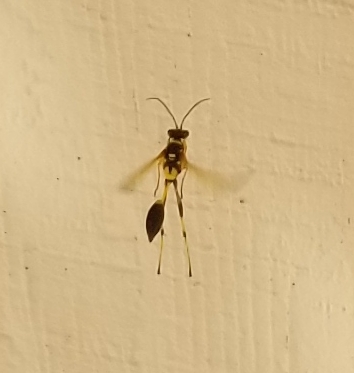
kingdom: Animalia
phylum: Arthropoda
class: Insecta
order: Hymenoptera
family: Sphecidae
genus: Sceliphron
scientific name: Sceliphron caementarium
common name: Mud dauber
